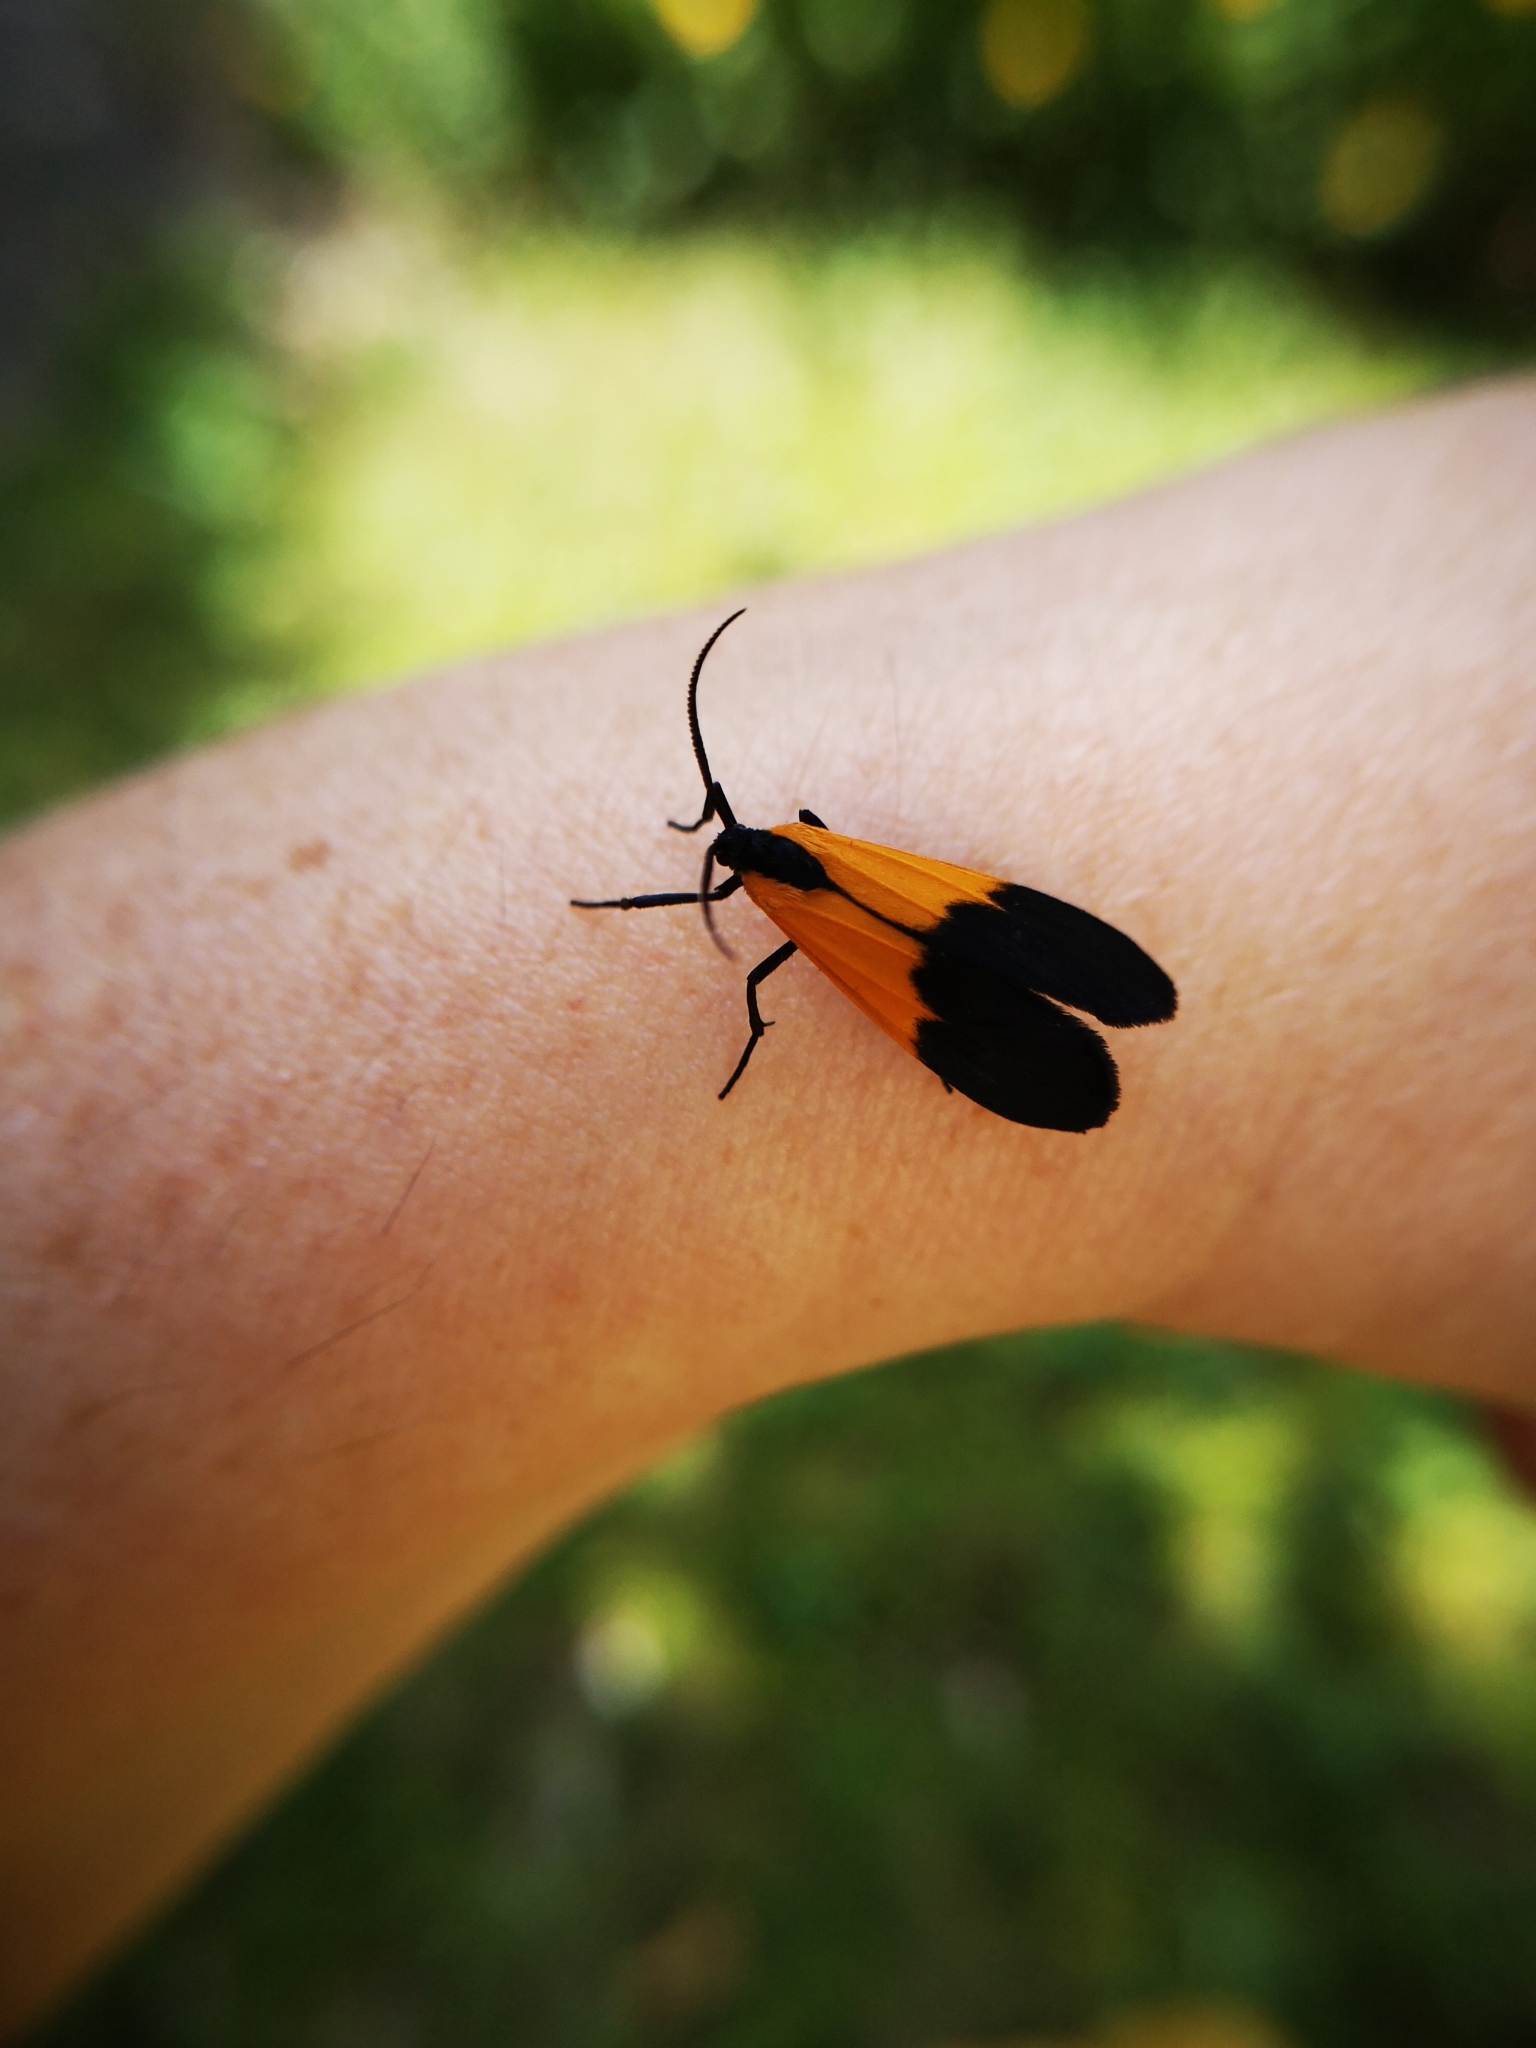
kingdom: Animalia
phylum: Arthropoda
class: Insecta
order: Lepidoptera
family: Erebidae
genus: Lycomorpha
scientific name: Lycomorpha pholus
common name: Black-and-yellow lichen moth
